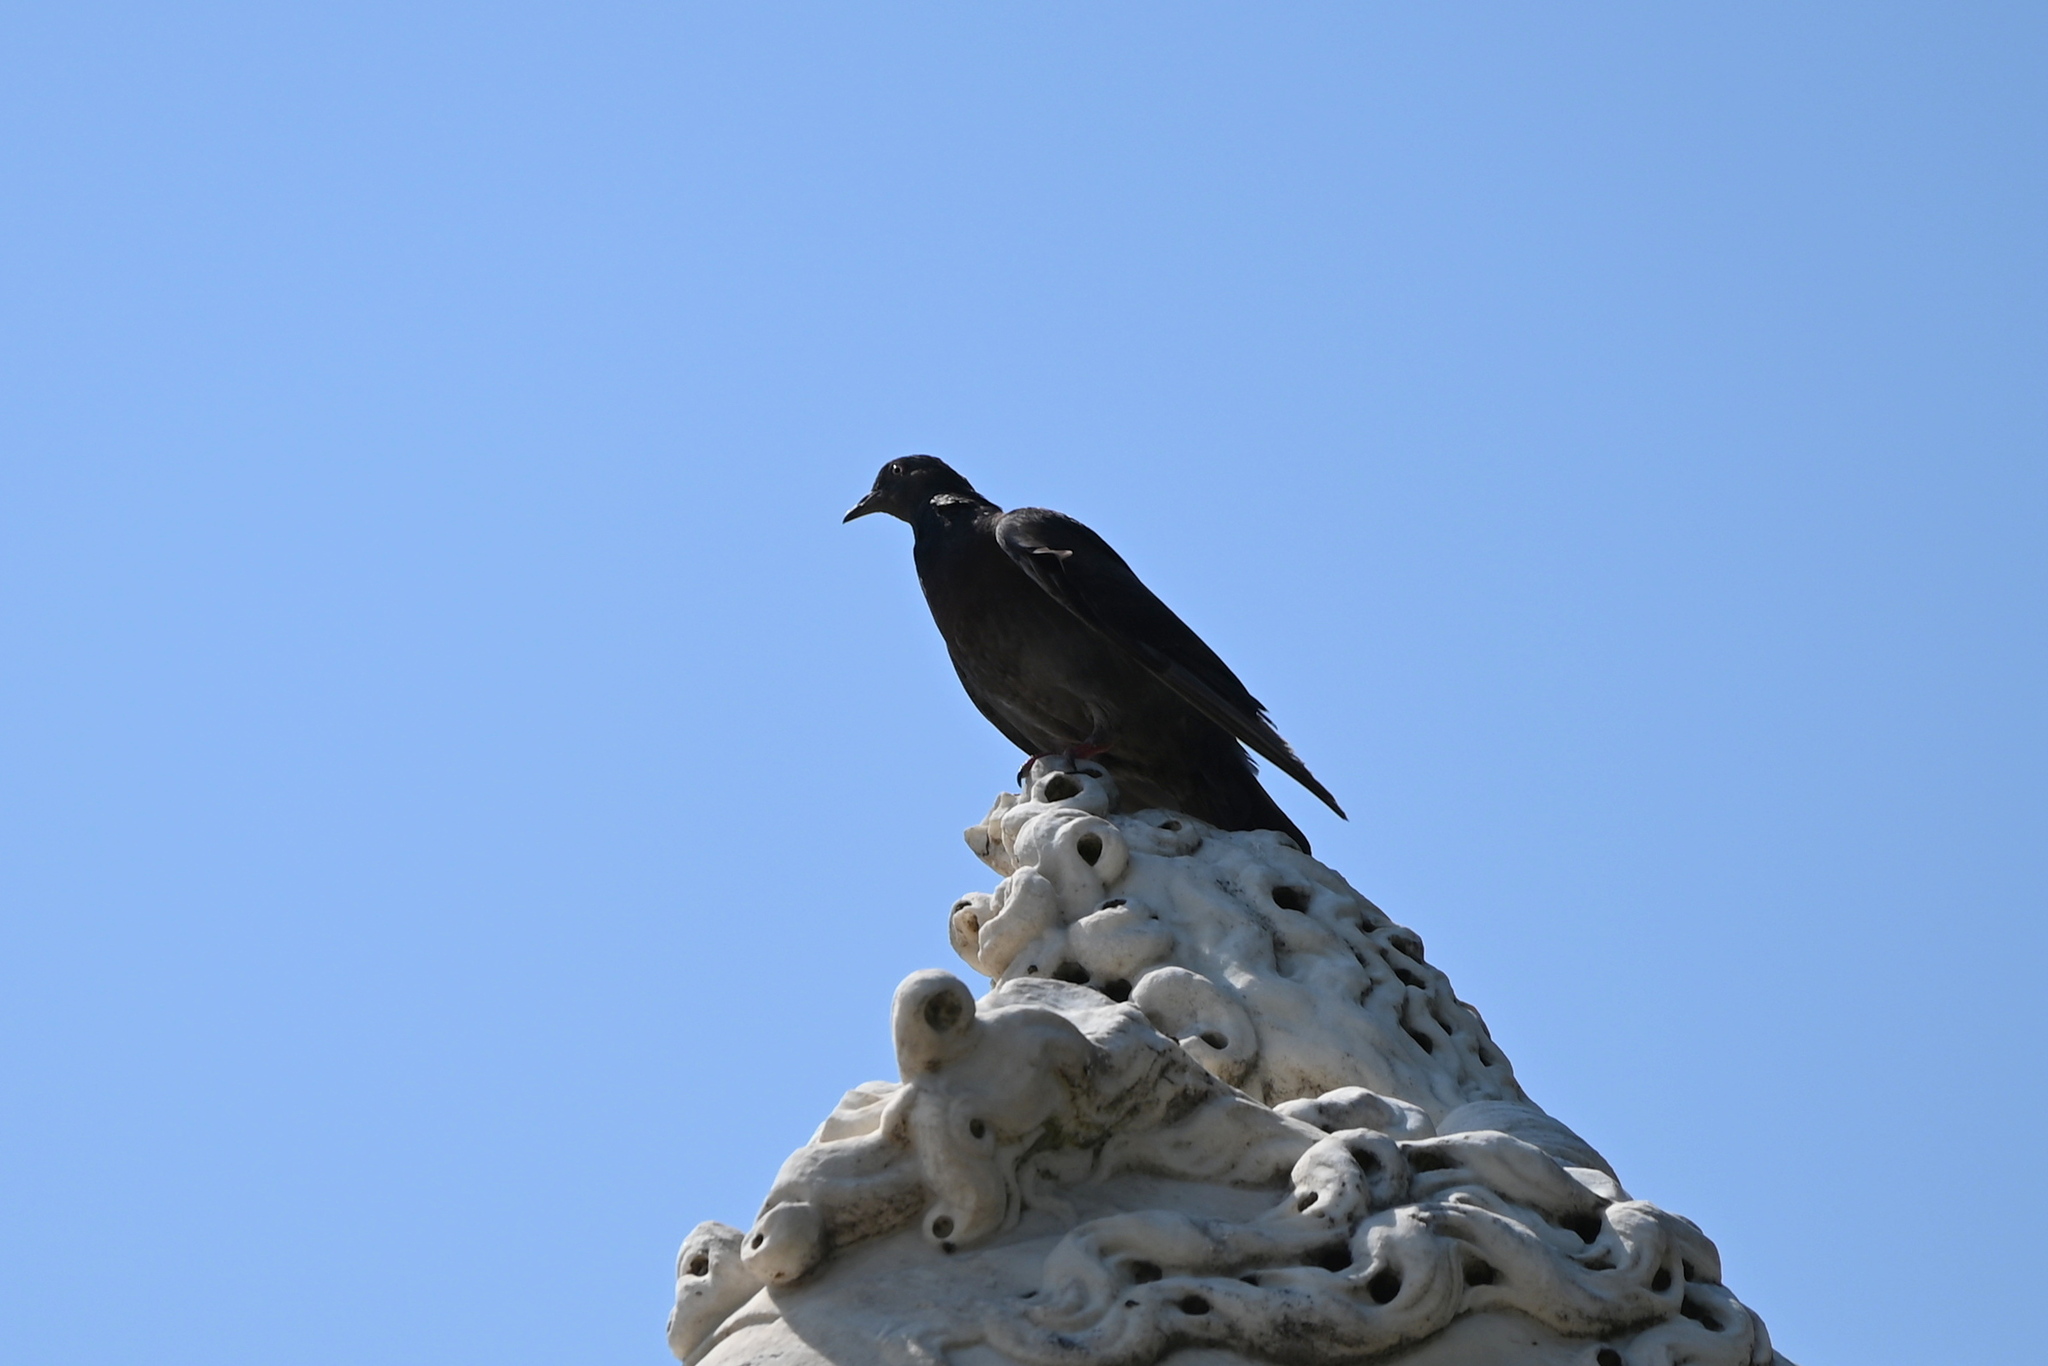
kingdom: Animalia
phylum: Chordata
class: Aves
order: Columbiformes
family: Columbidae
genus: Columba
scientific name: Columba livia
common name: Rock pigeon
